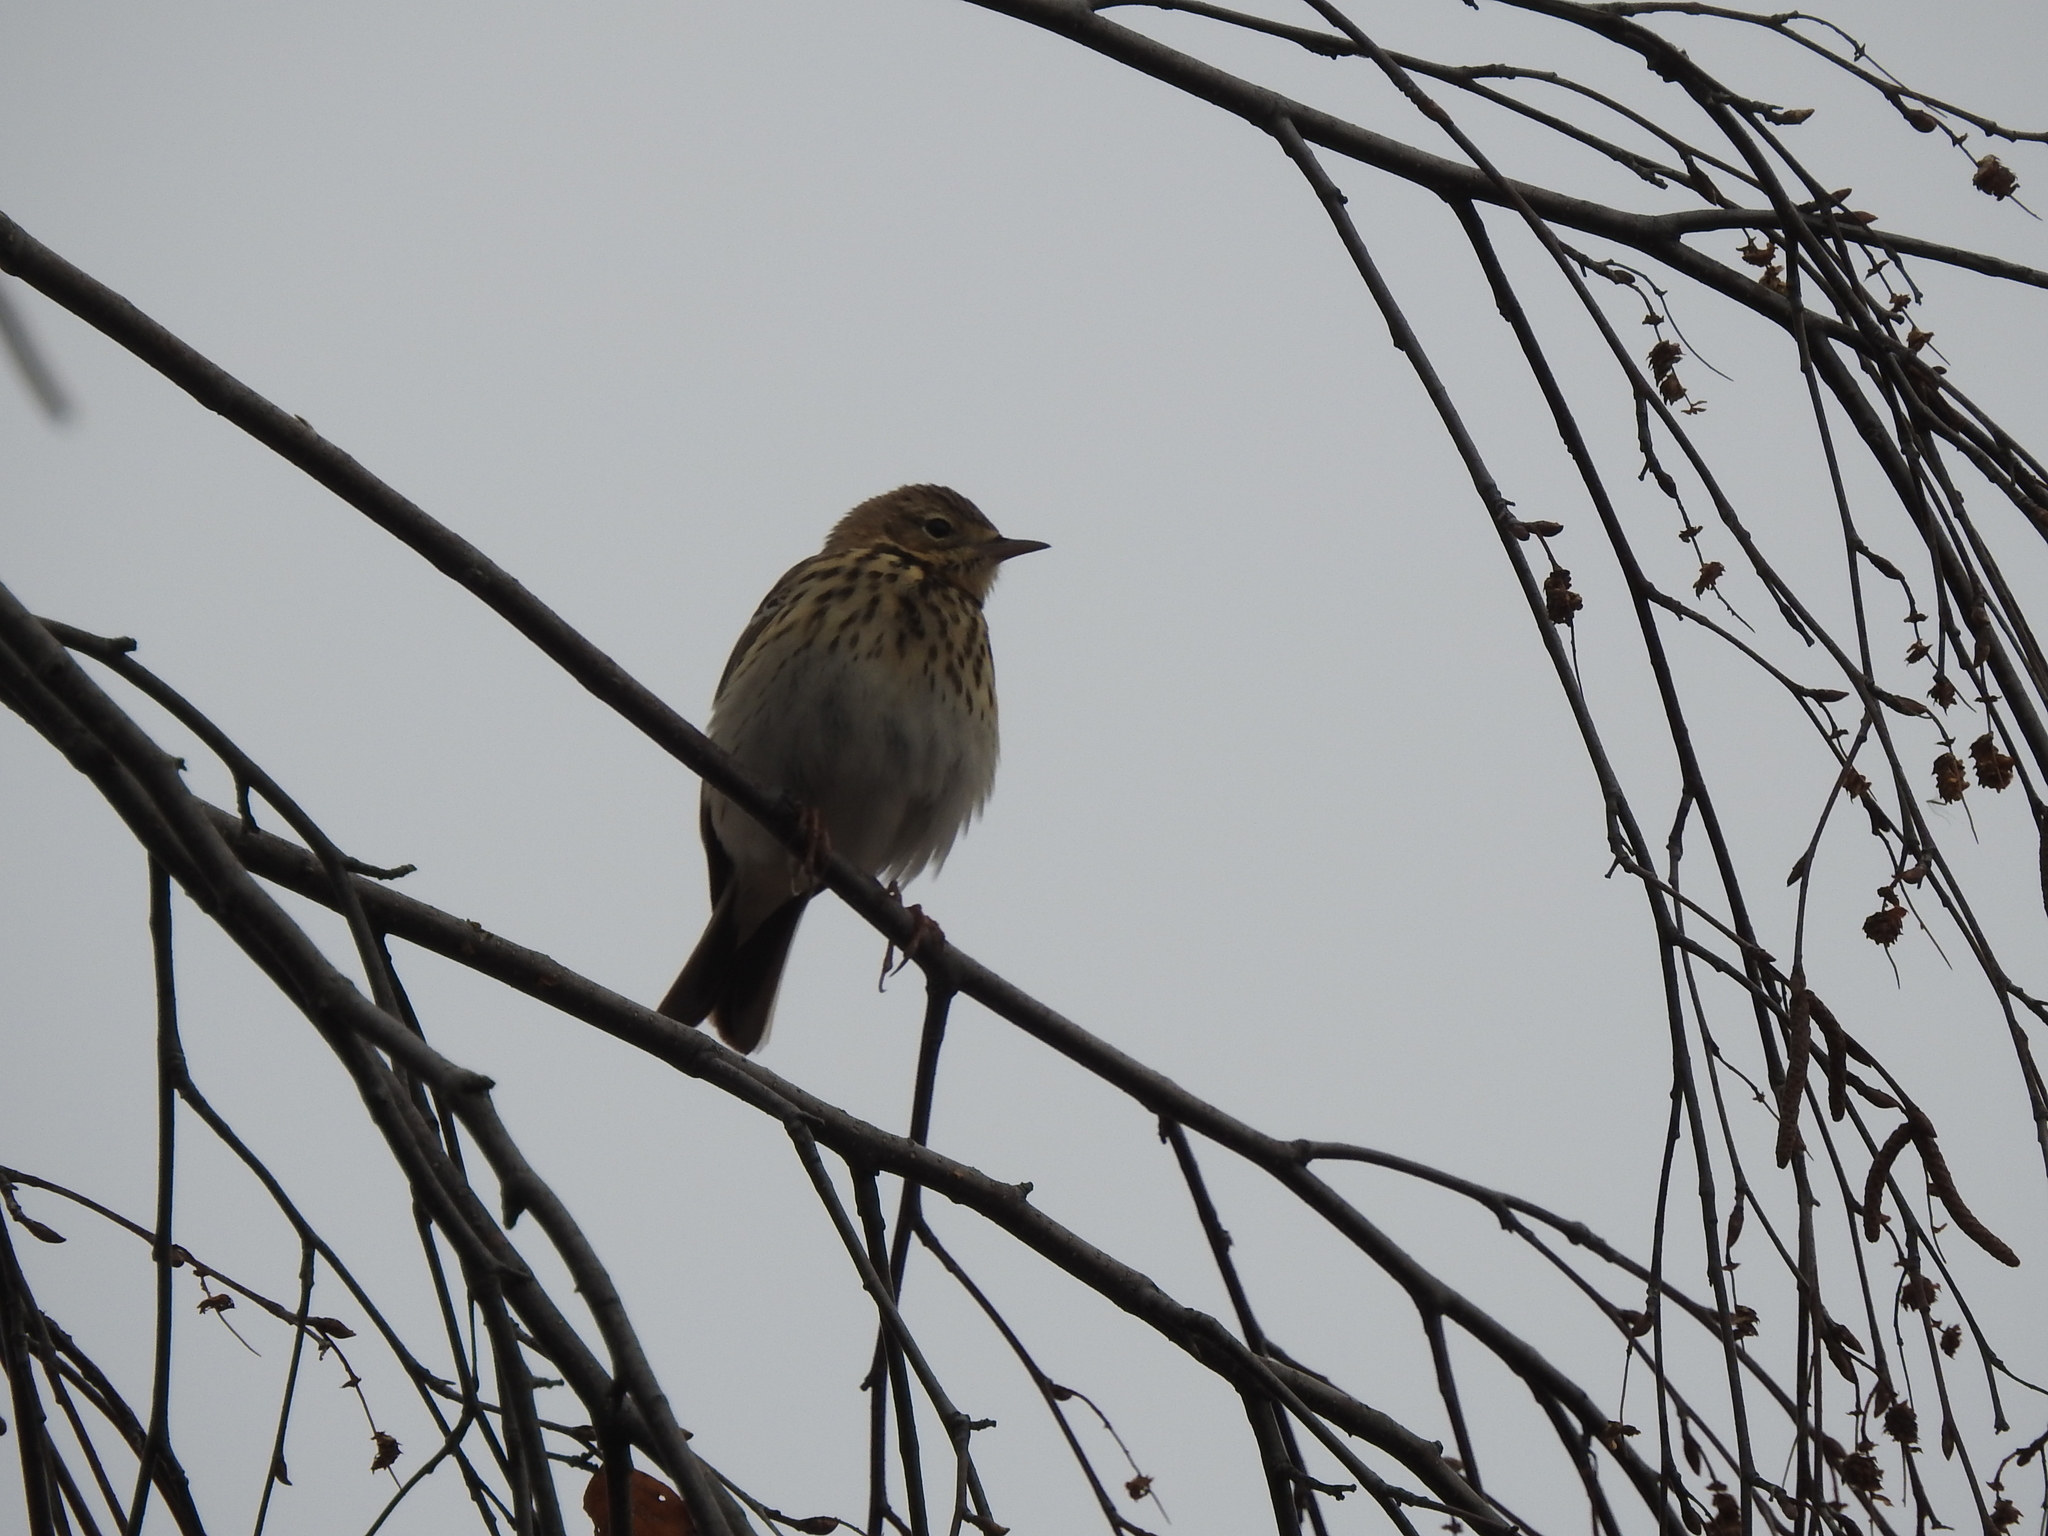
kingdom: Animalia
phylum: Chordata
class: Aves
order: Passeriformes
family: Motacillidae
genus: Anthus
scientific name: Anthus trivialis
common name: Tree pipit
